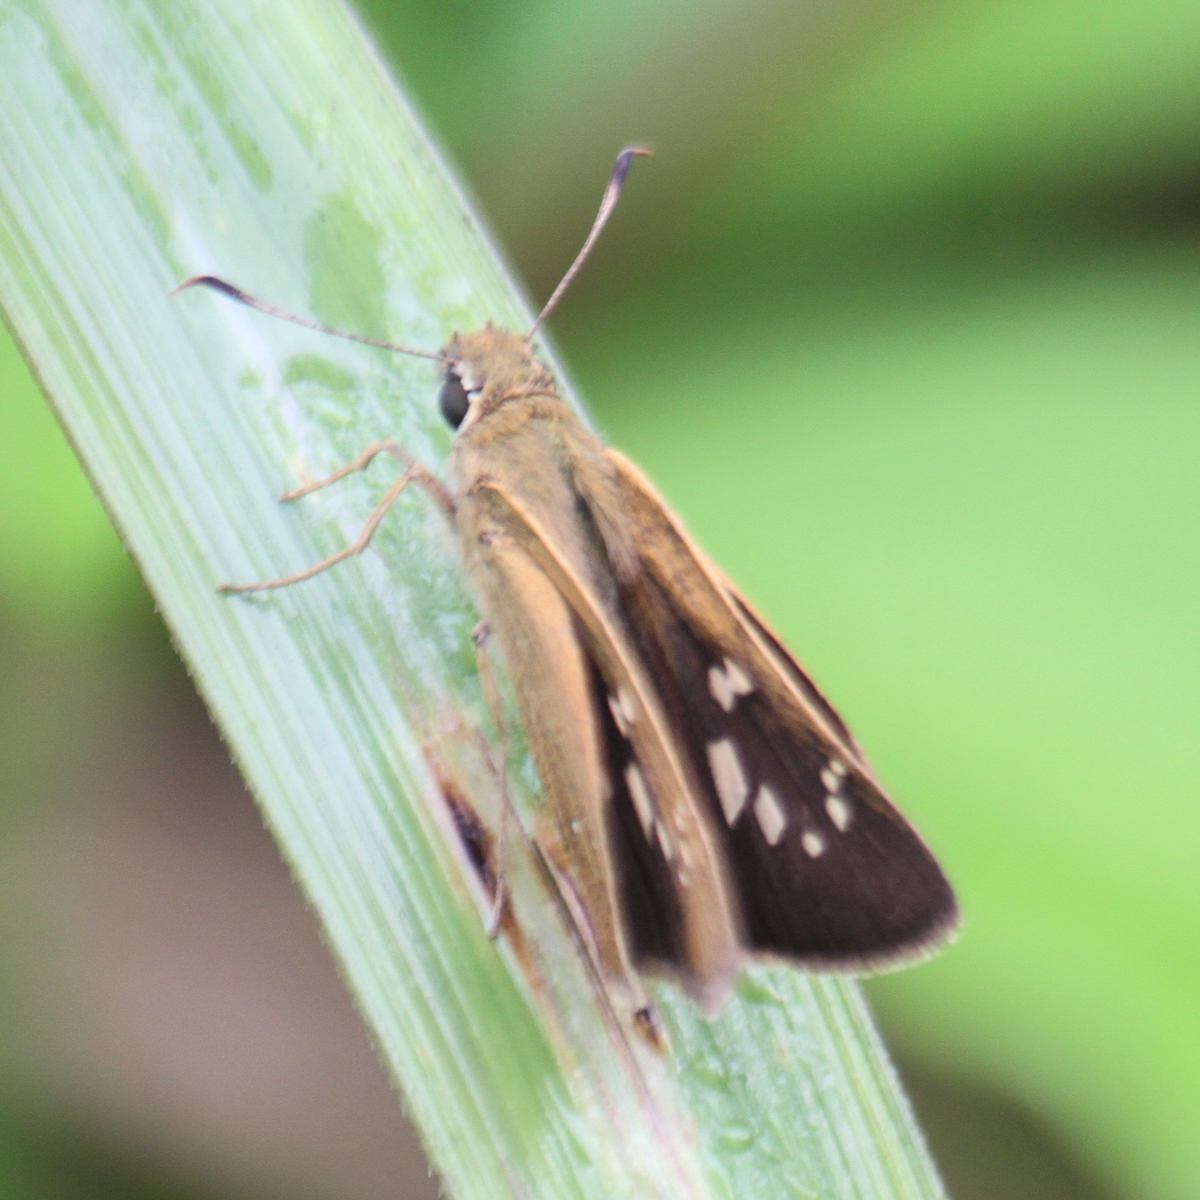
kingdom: Animalia
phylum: Arthropoda
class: Insecta
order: Lepidoptera
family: Hesperiidae
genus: Polytremis
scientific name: Polytremis lubricans
